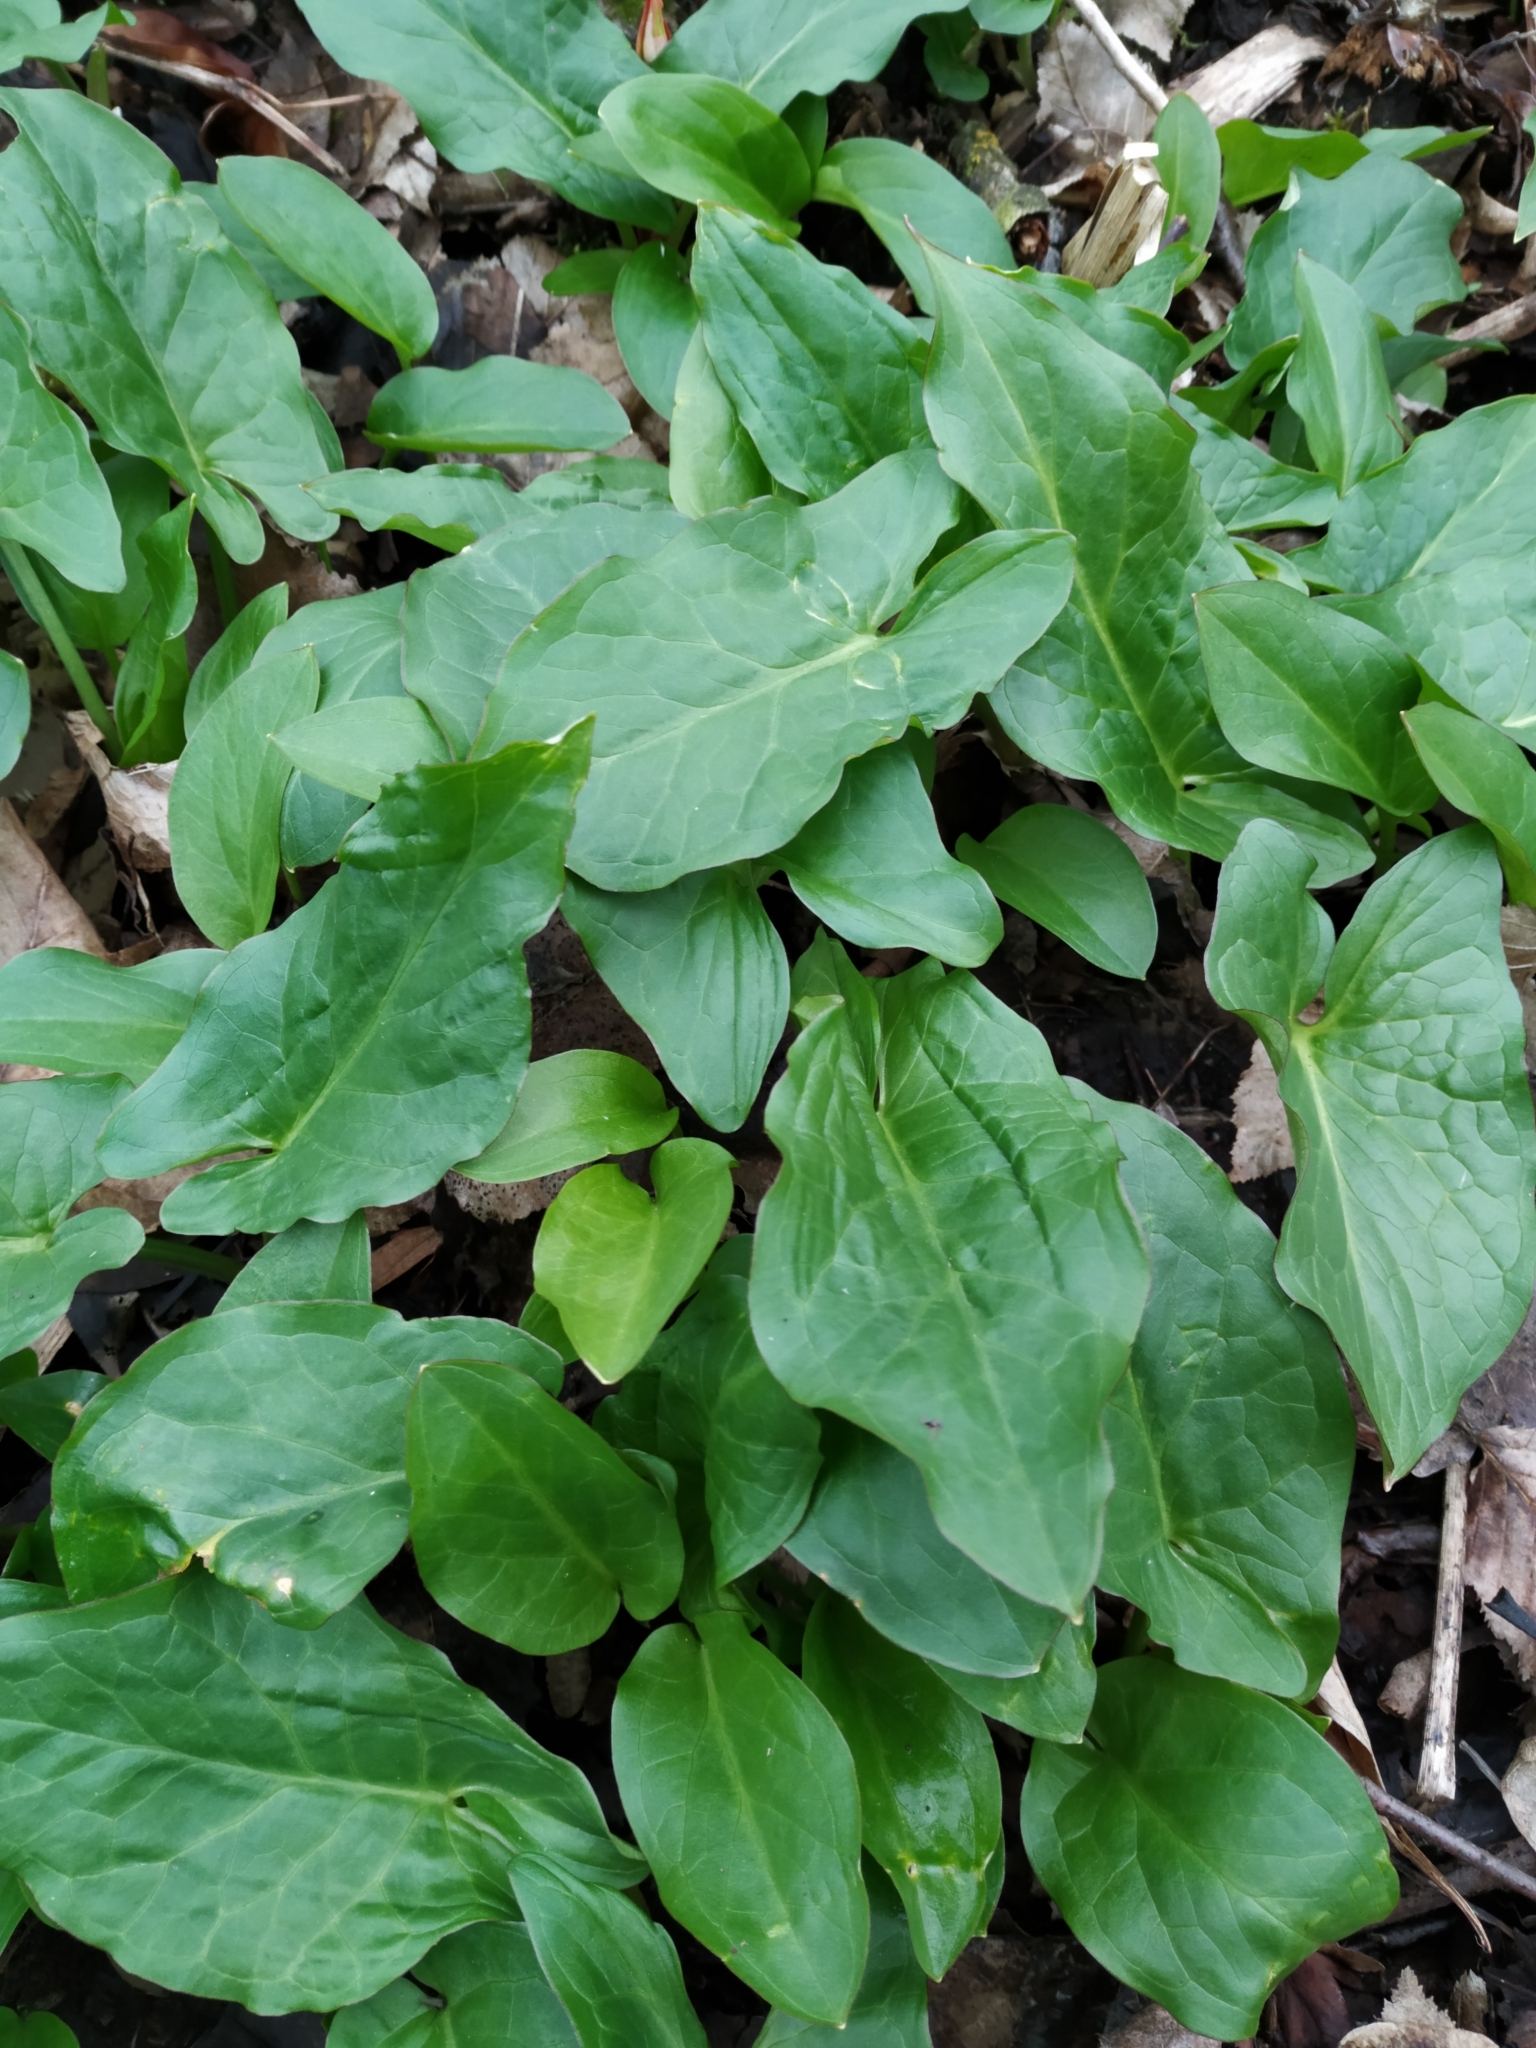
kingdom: Plantae
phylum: Tracheophyta
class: Liliopsida
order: Alismatales
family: Araceae
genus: Arum
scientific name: Arum maculatum
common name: Lords-and-ladies
